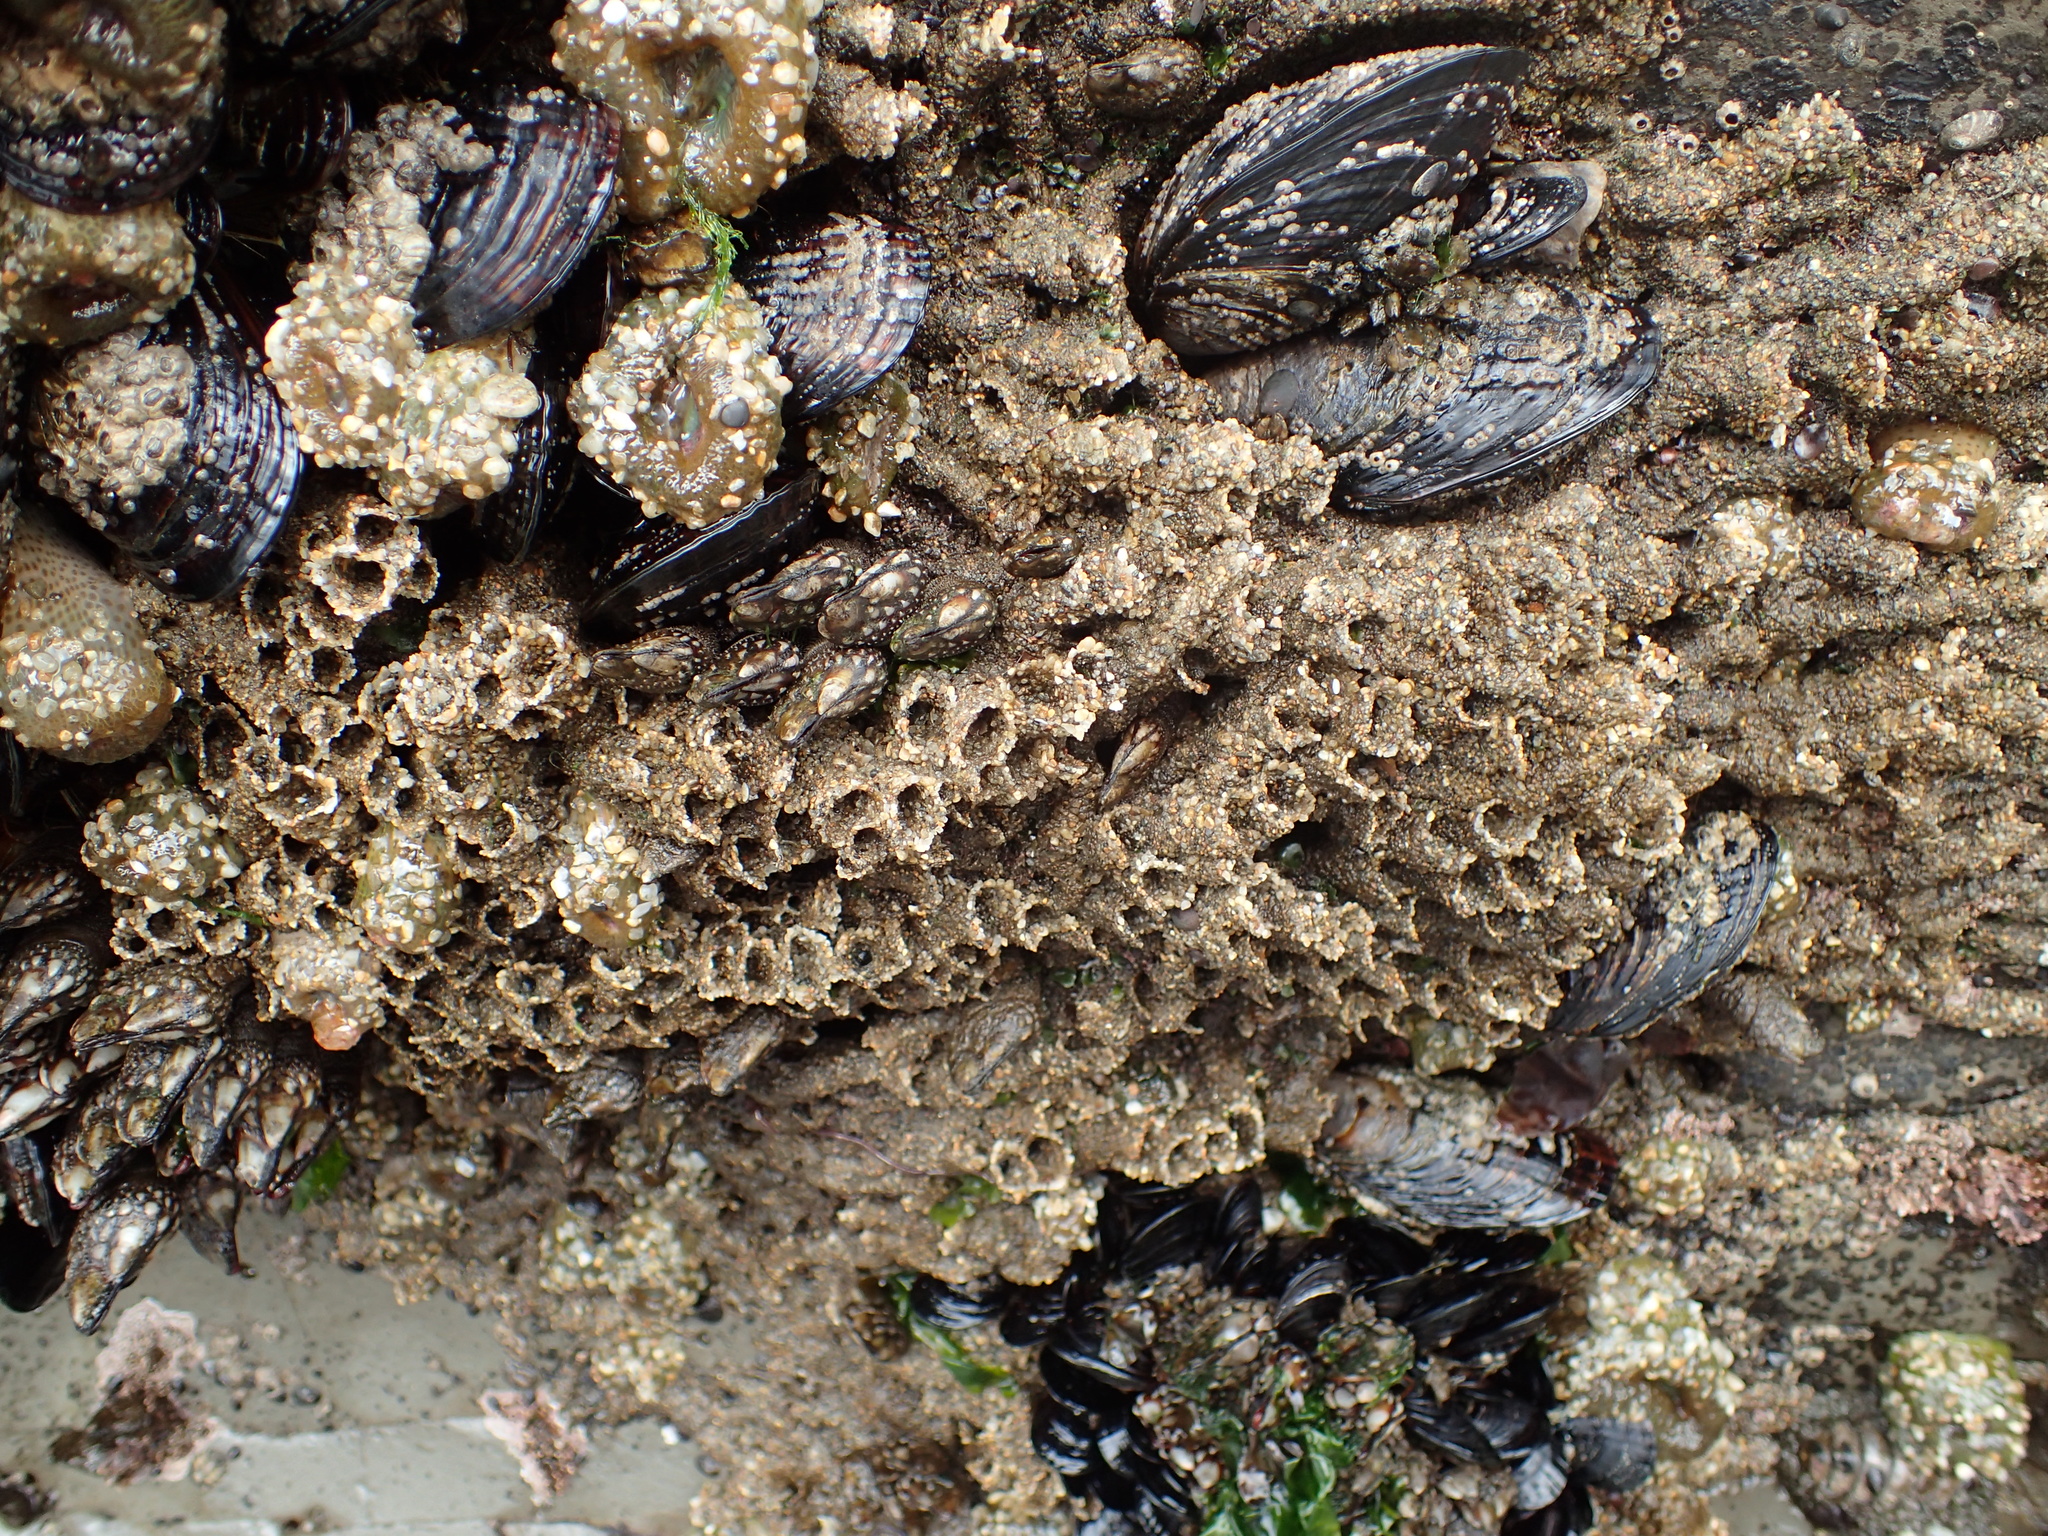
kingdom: Animalia
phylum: Annelida
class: Polychaeta
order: Sabellida
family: Sabellariidae
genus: Phragmatopoma
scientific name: Phragmatopoma californica
